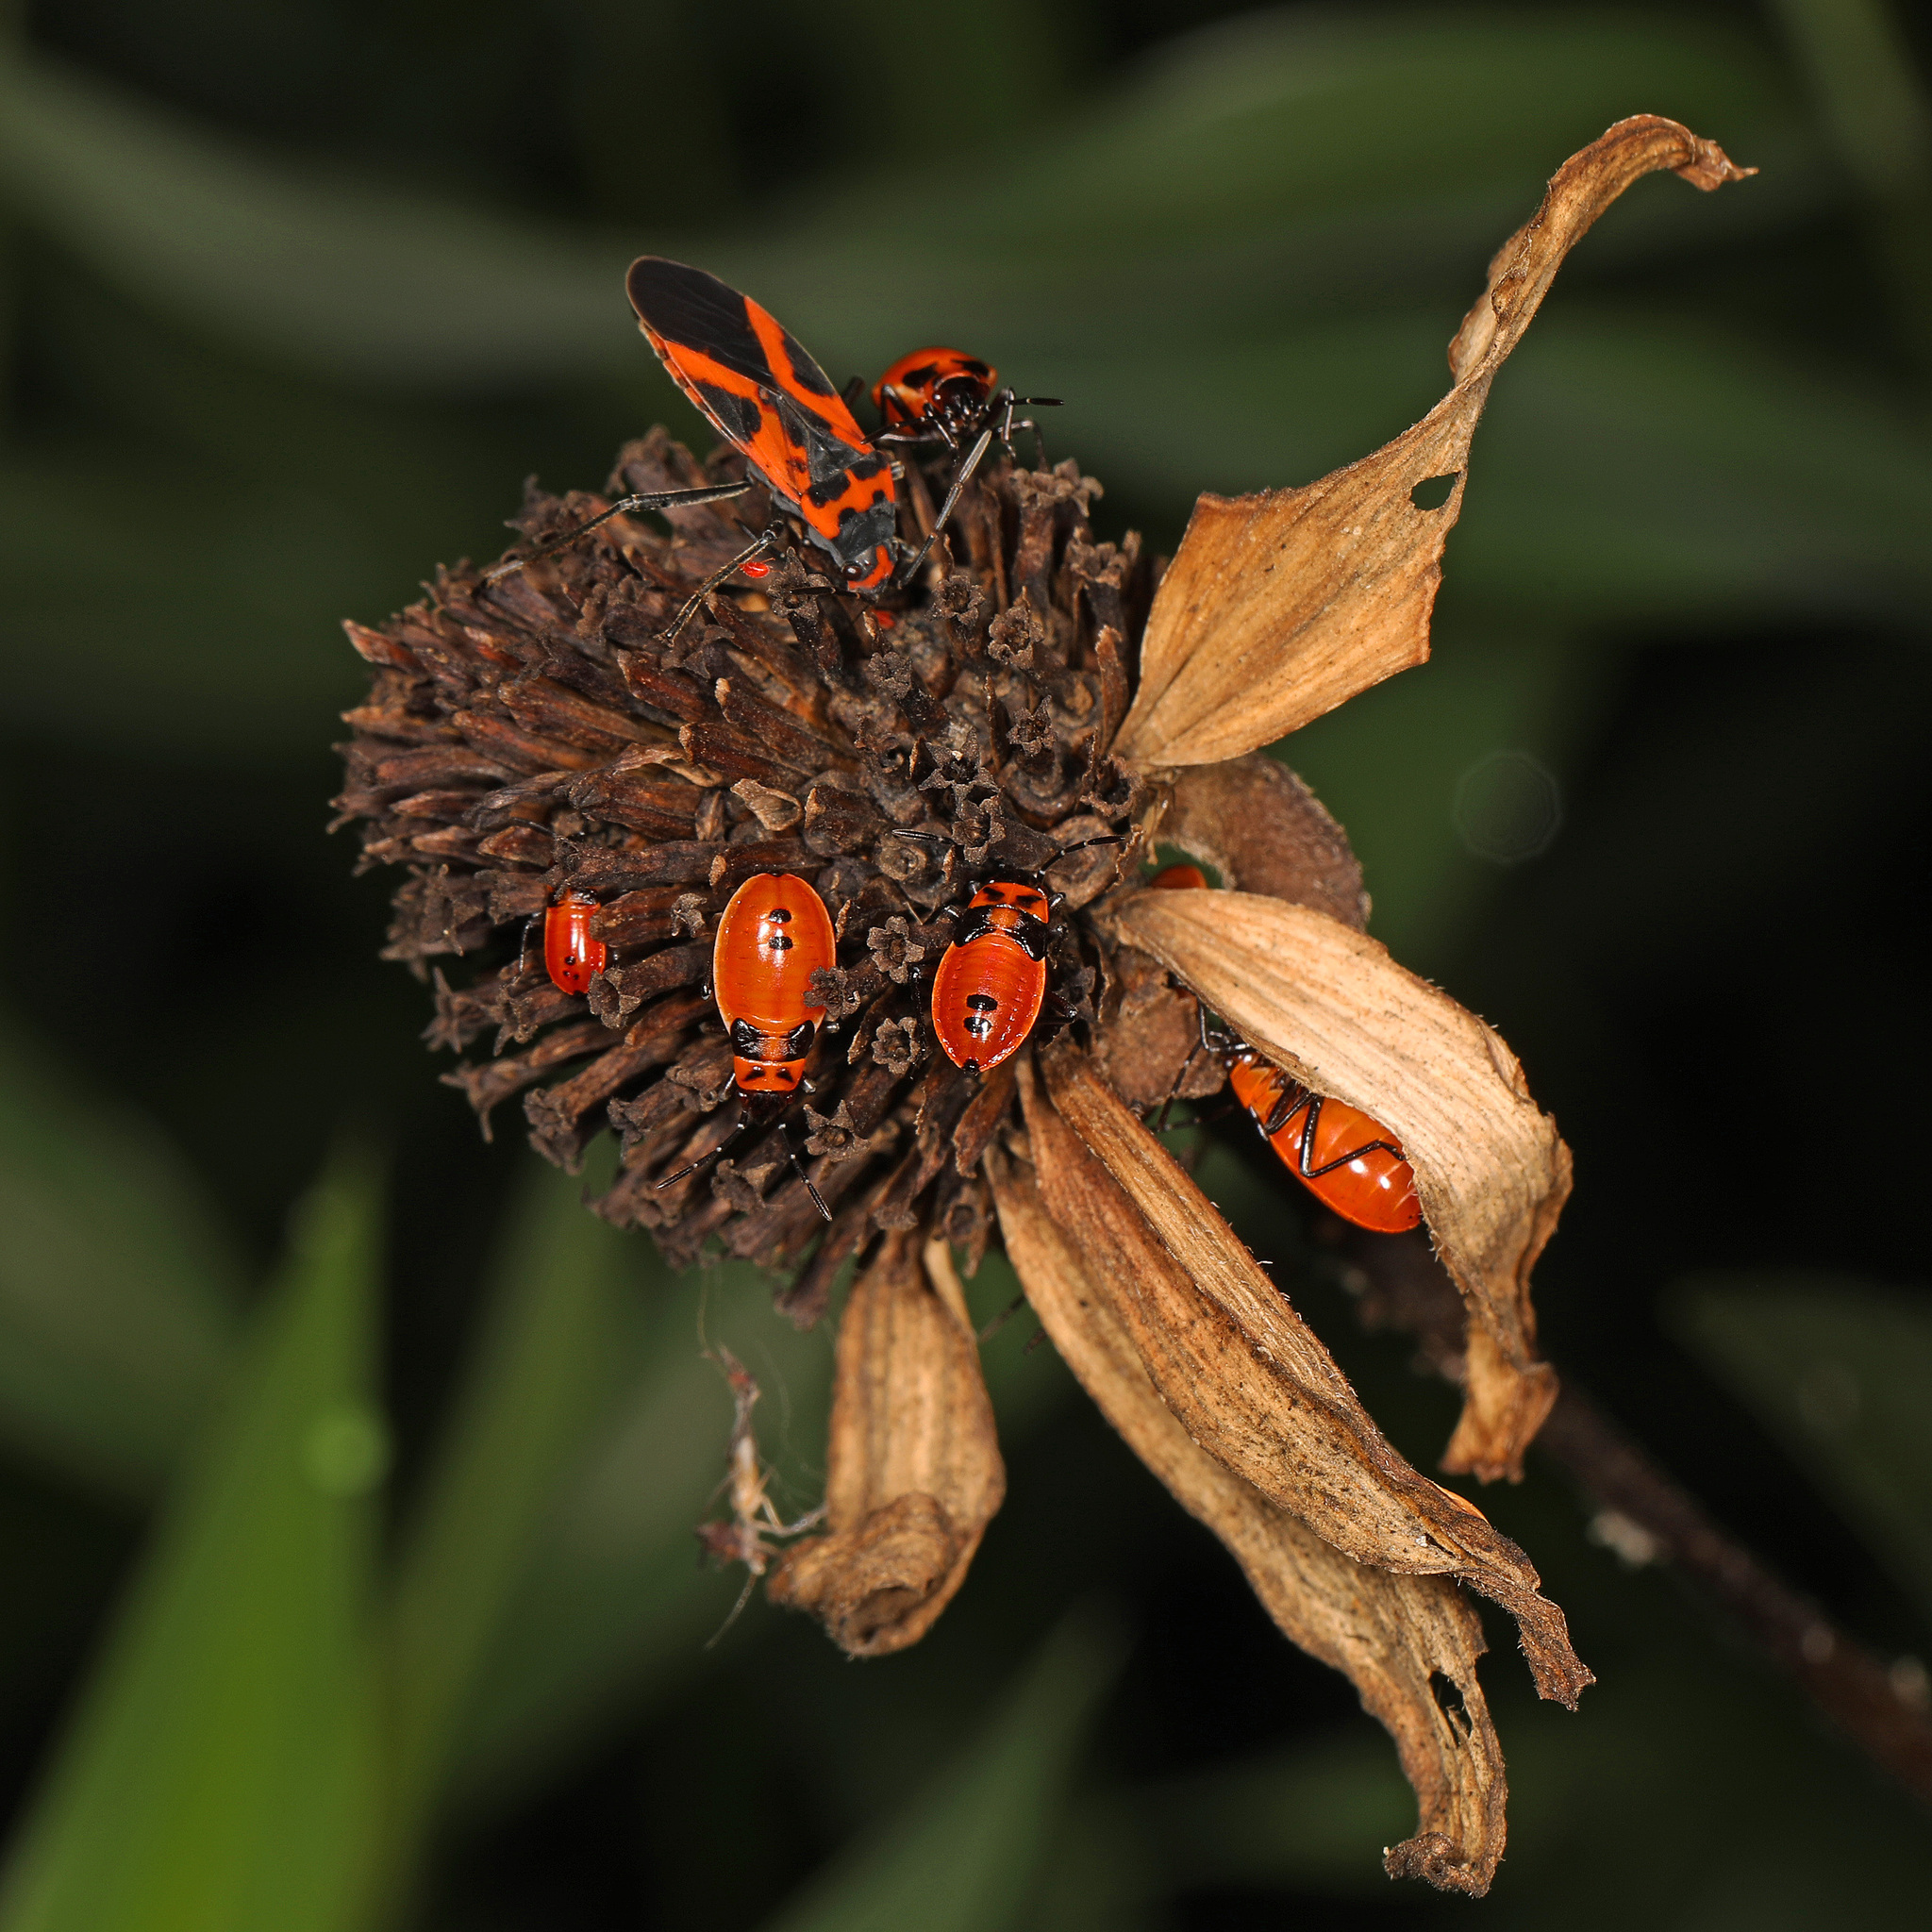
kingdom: Animalia
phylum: Arthropoda
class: Insecta
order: Hemiptera
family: Lygaeidae
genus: Lygaeus
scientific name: Lygaeus turcicus
